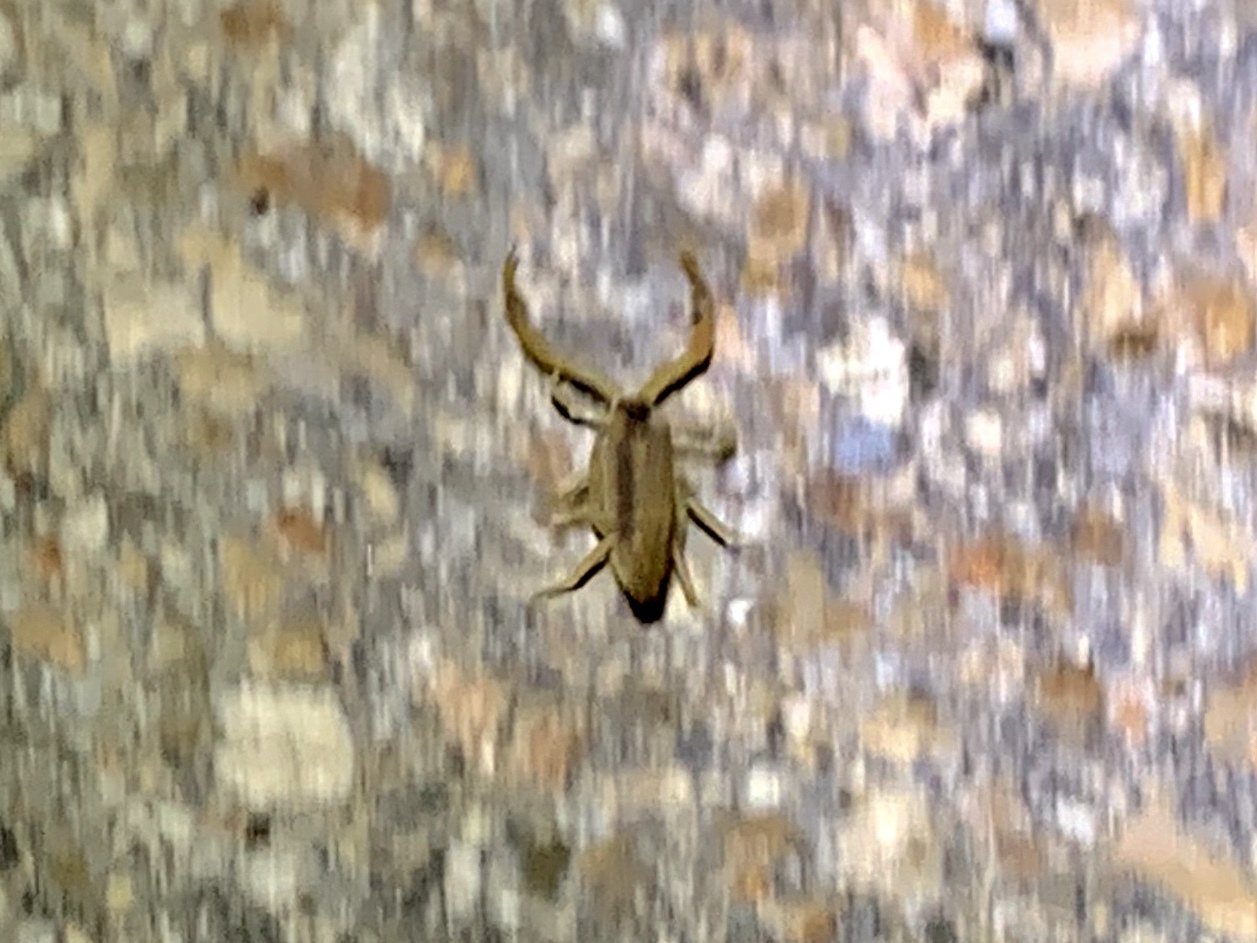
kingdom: Animalia
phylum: Arthropoda
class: Arachnida
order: Scorpiones
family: Buthidae
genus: Centruroides
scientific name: Centruroides vittatus
